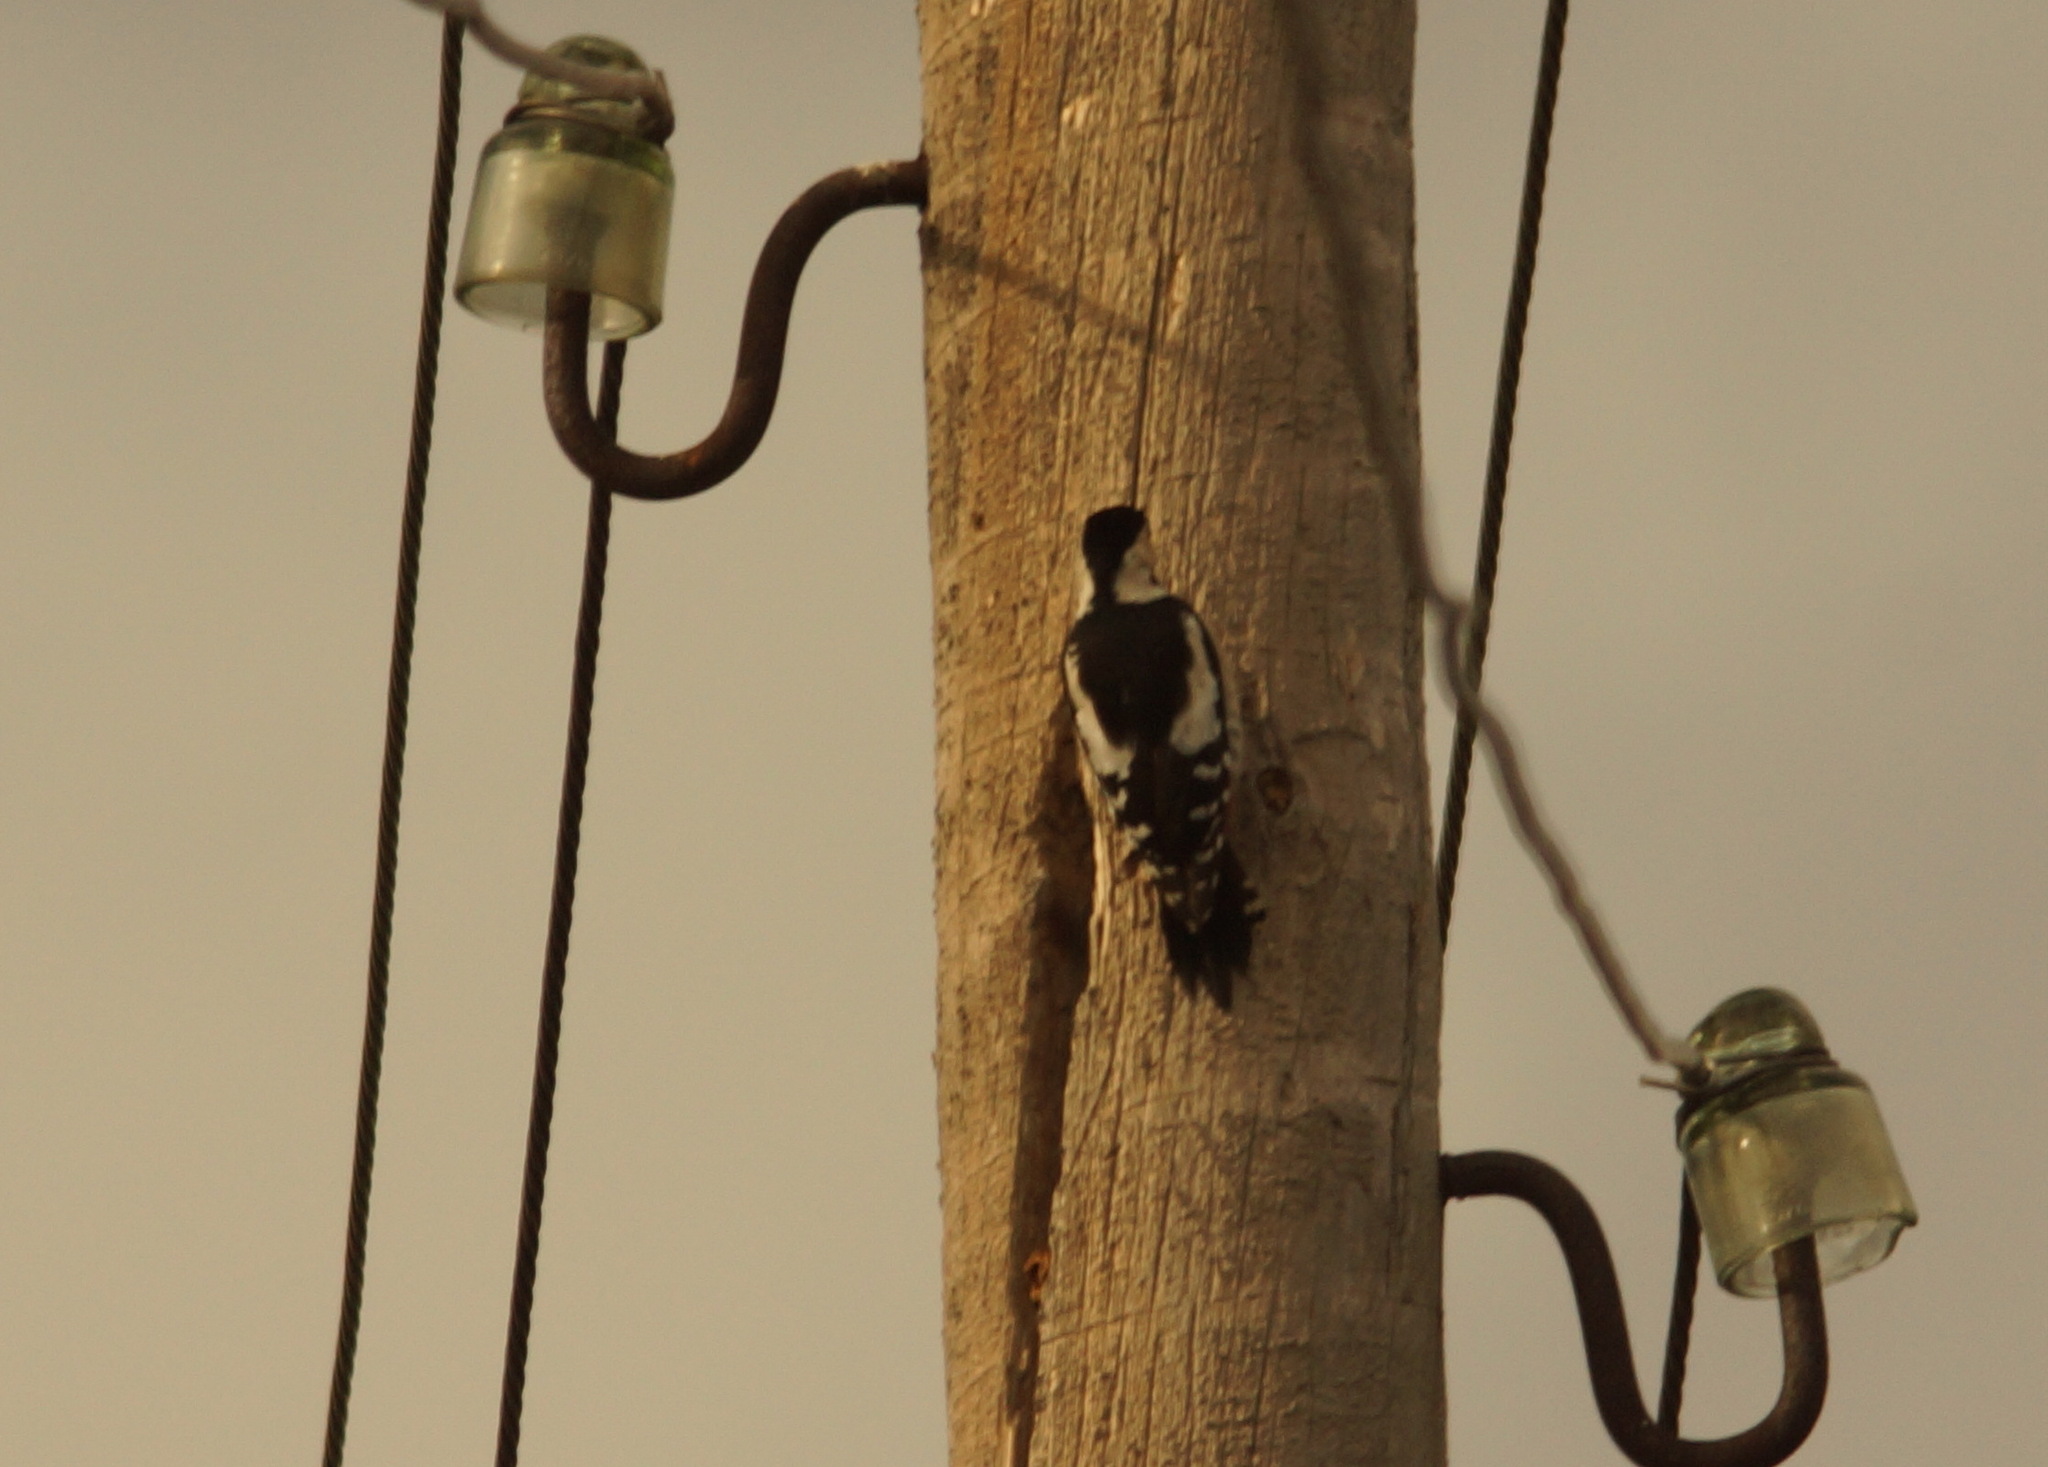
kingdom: Animalia
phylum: Chordata
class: Aves
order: Piciformes
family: Picidae
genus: Dendrocopos
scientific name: Dendrocopos syriacus
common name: Syrian woodpecker
